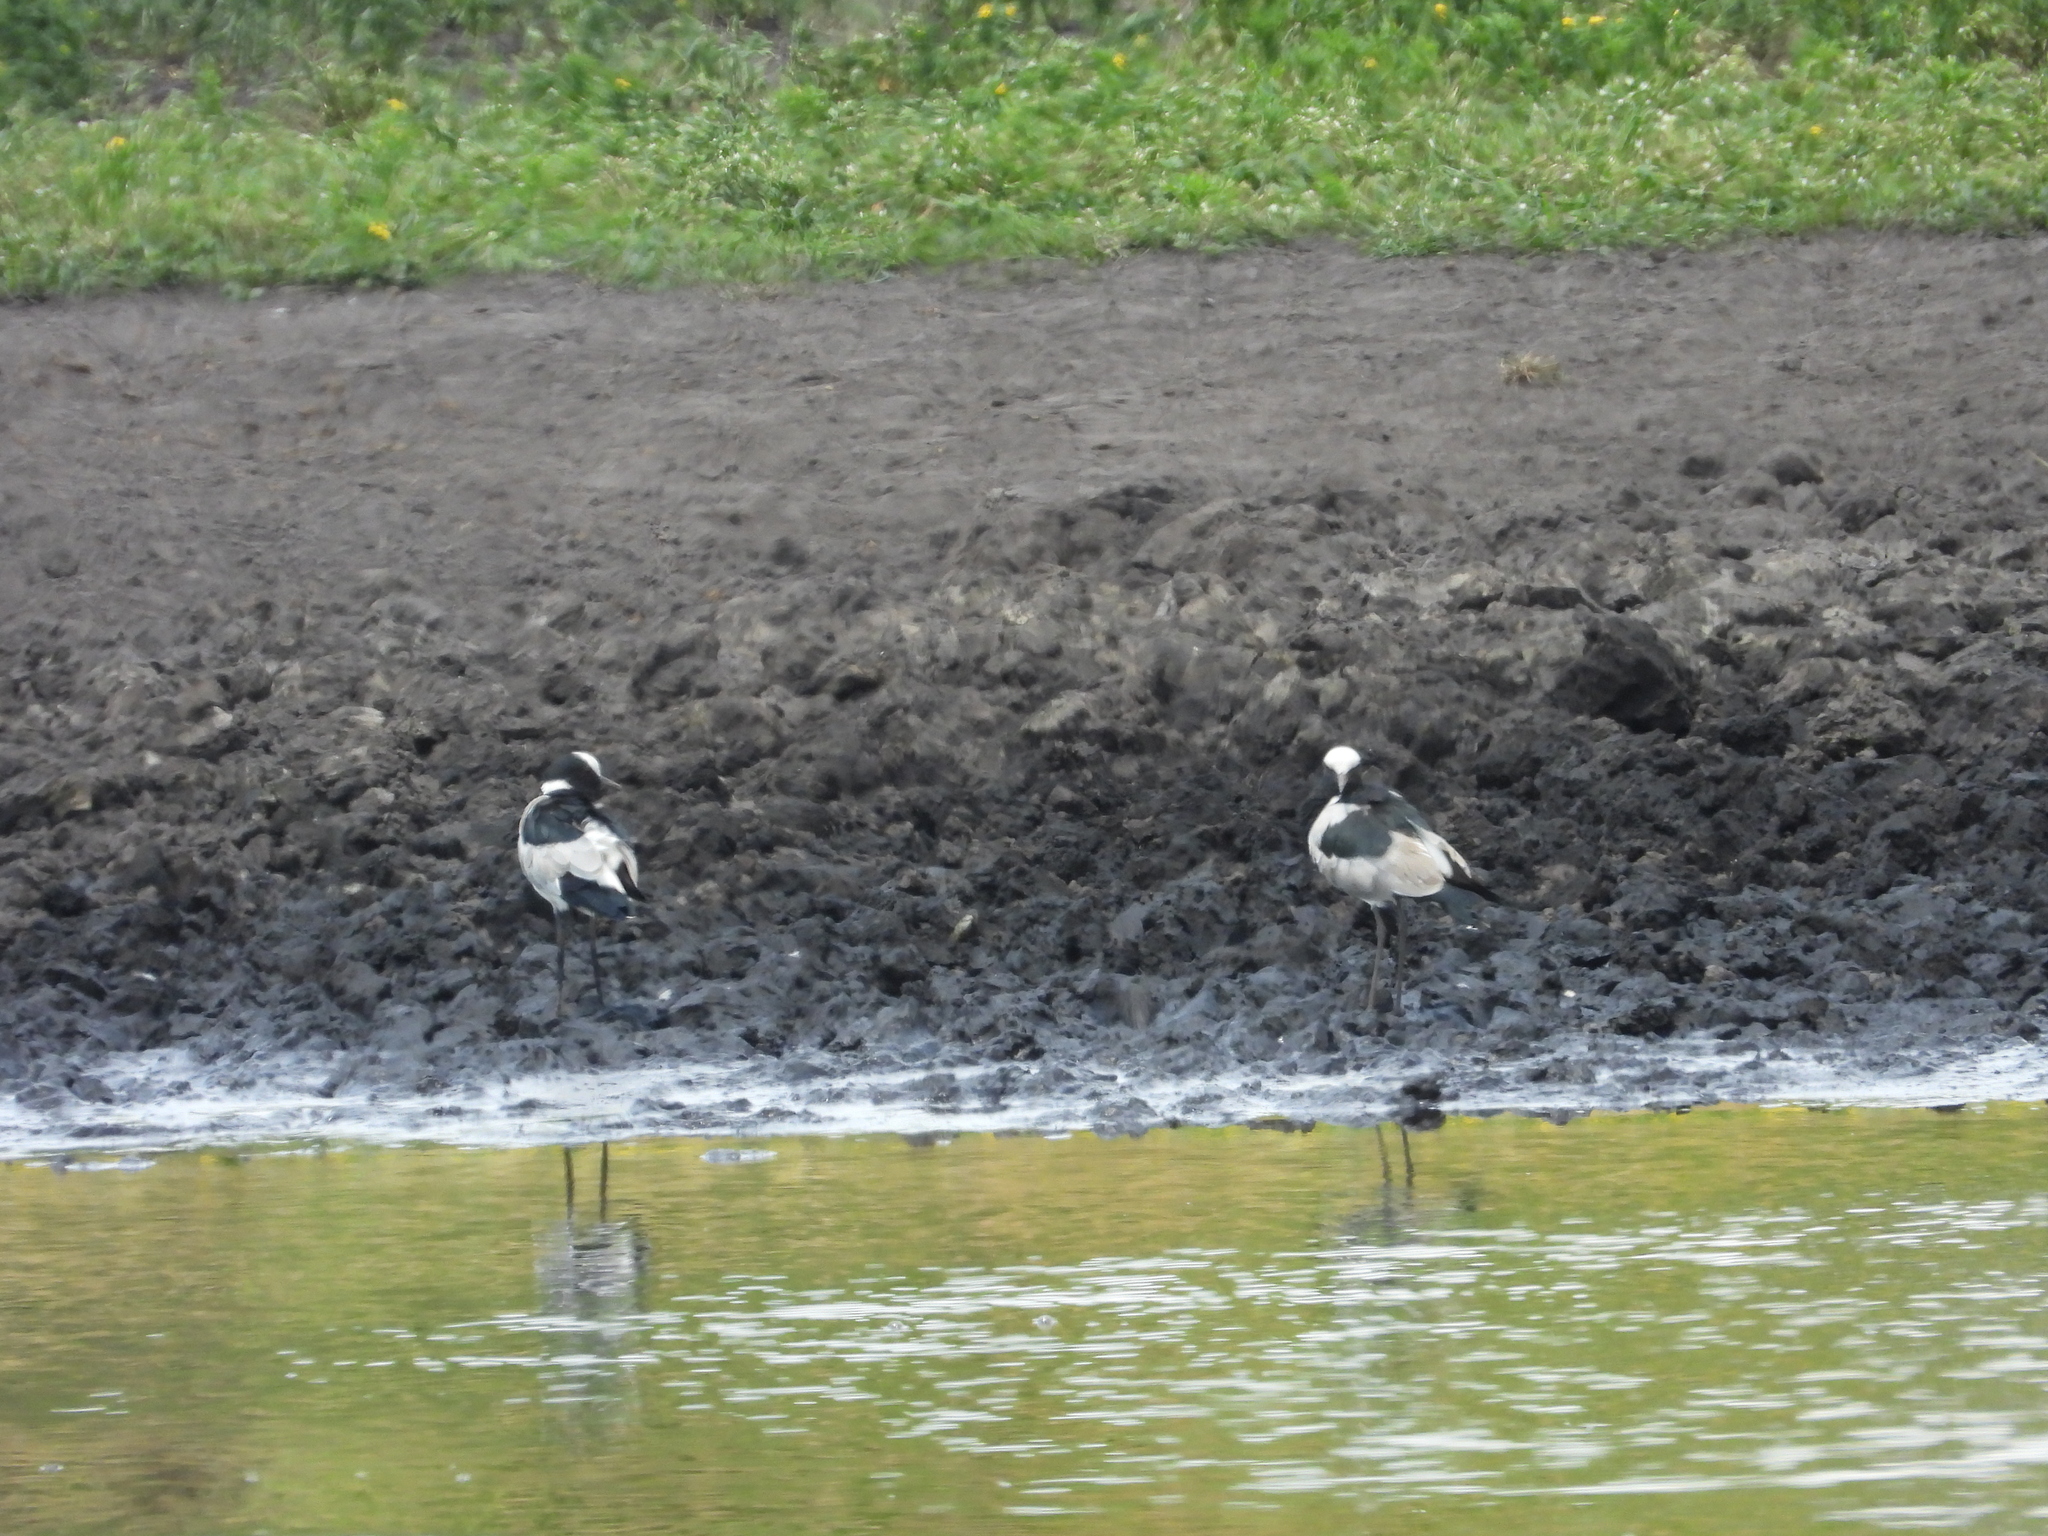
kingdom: Animalia
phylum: Chordata
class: Aves
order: Charadriiformes
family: Charadriidae
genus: Vanellus
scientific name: Vanellus armatus
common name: Blacksmith lapwing
